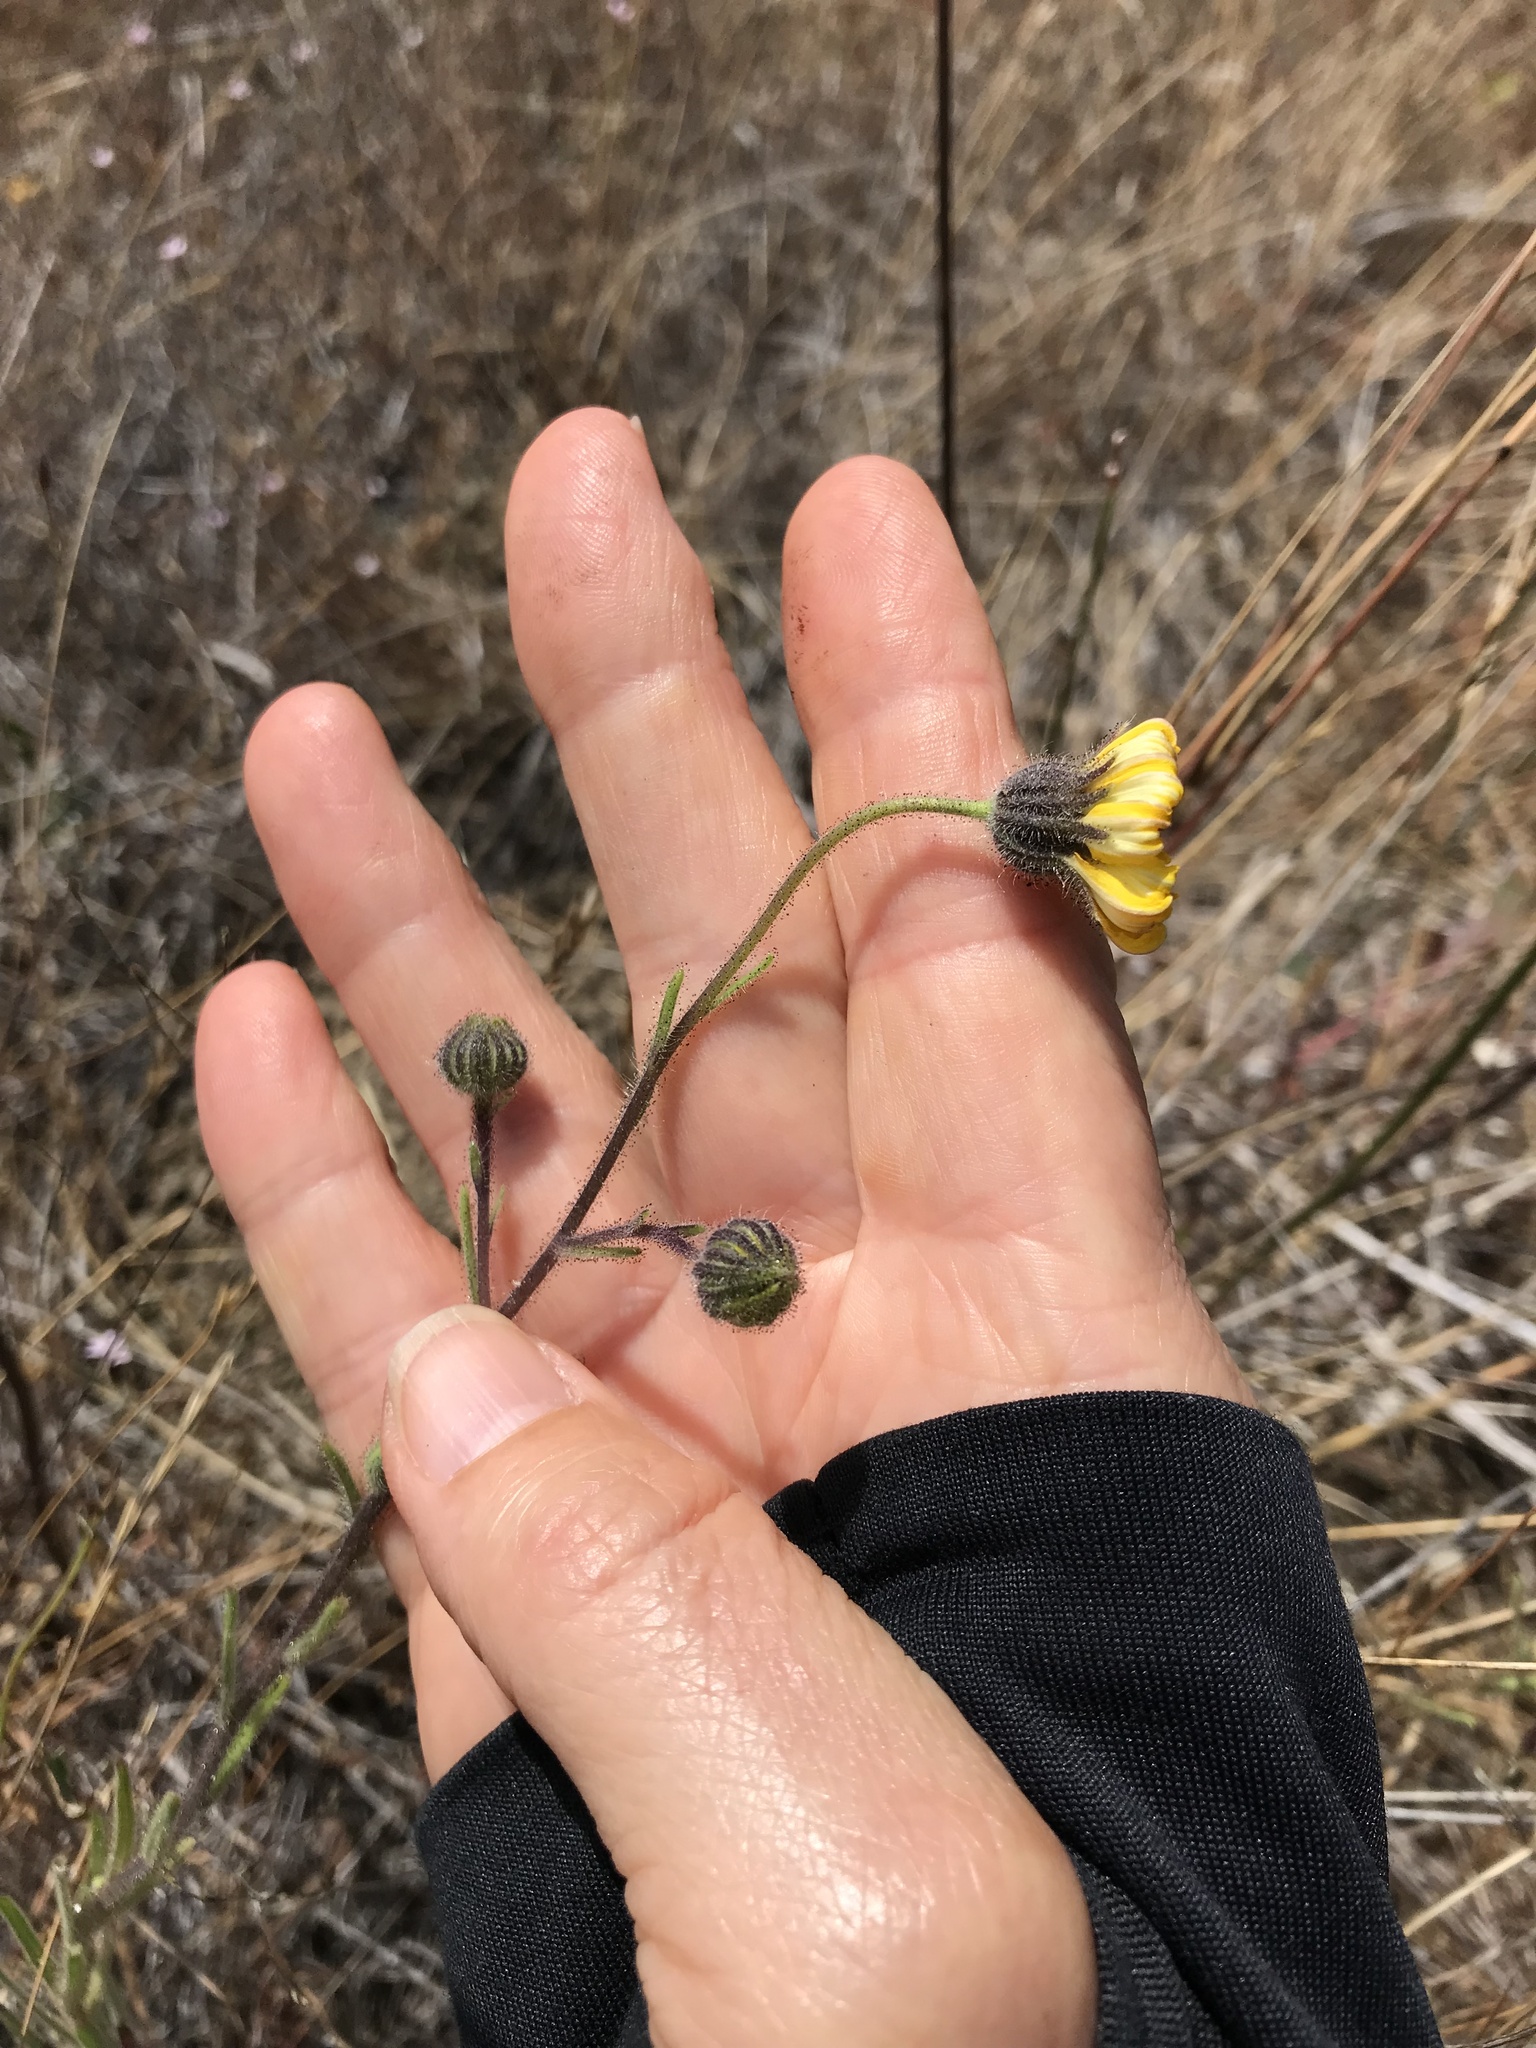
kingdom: Plantae
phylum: Tracheophyta
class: Magnoliopsida
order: Asterales
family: Asteraceae
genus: Madia
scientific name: Madia elegans
